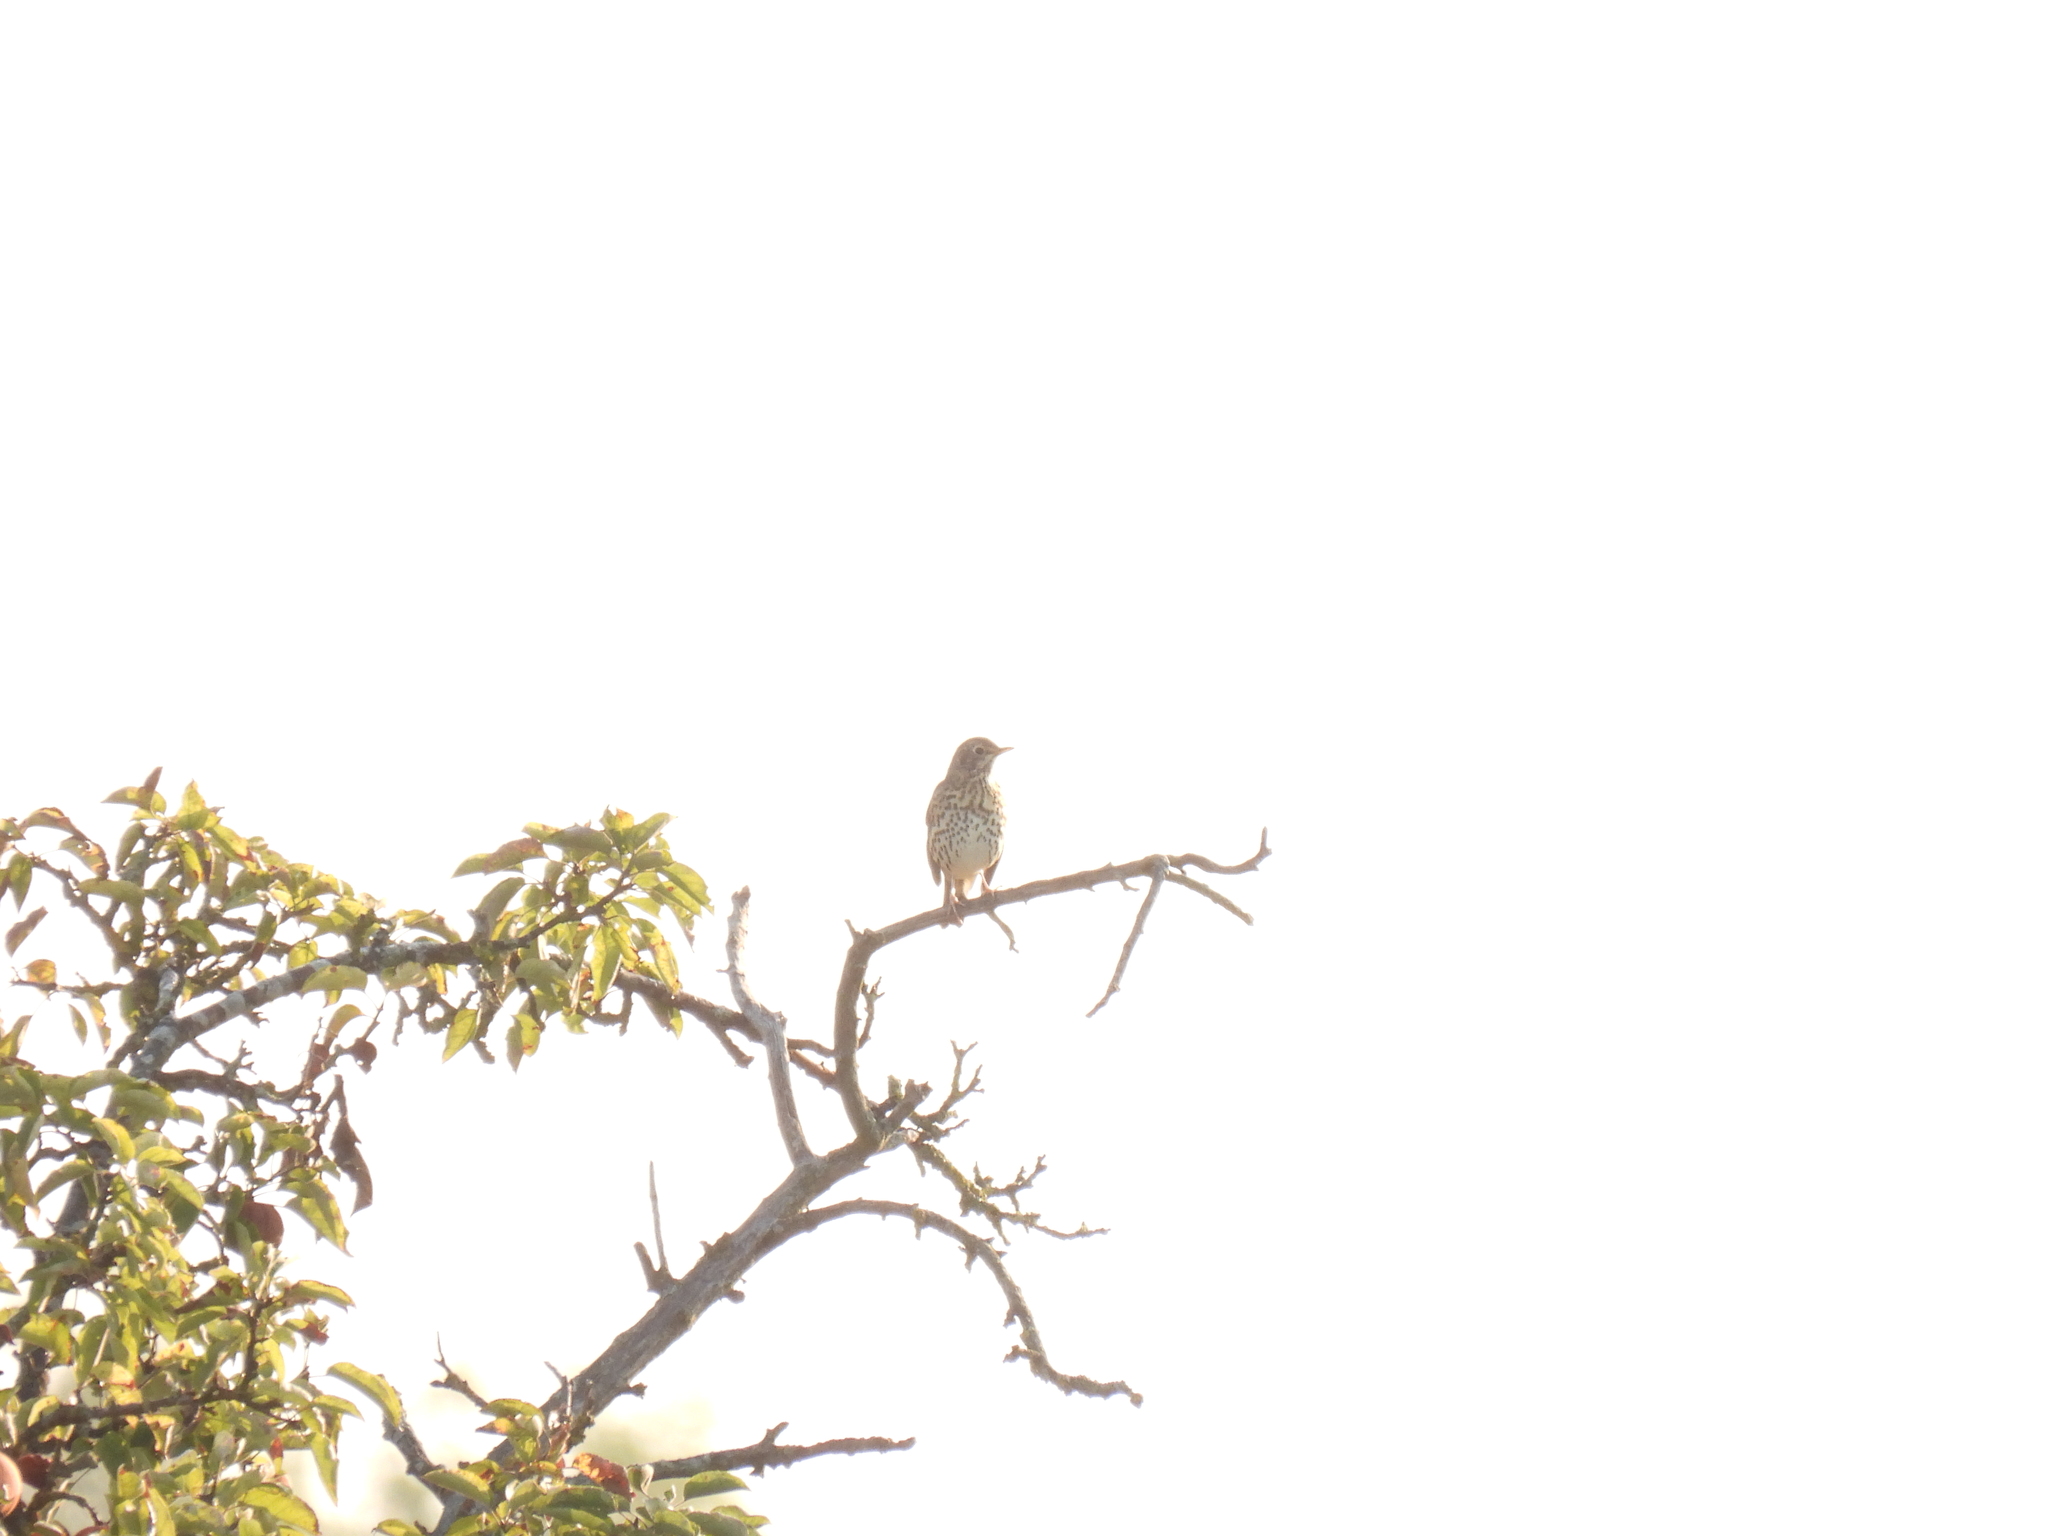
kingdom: Animalia
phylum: Chordata
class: Aves
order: Passeriformes
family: Turdidae
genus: Turdus
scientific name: Turdus philomelos
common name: Song thrush
